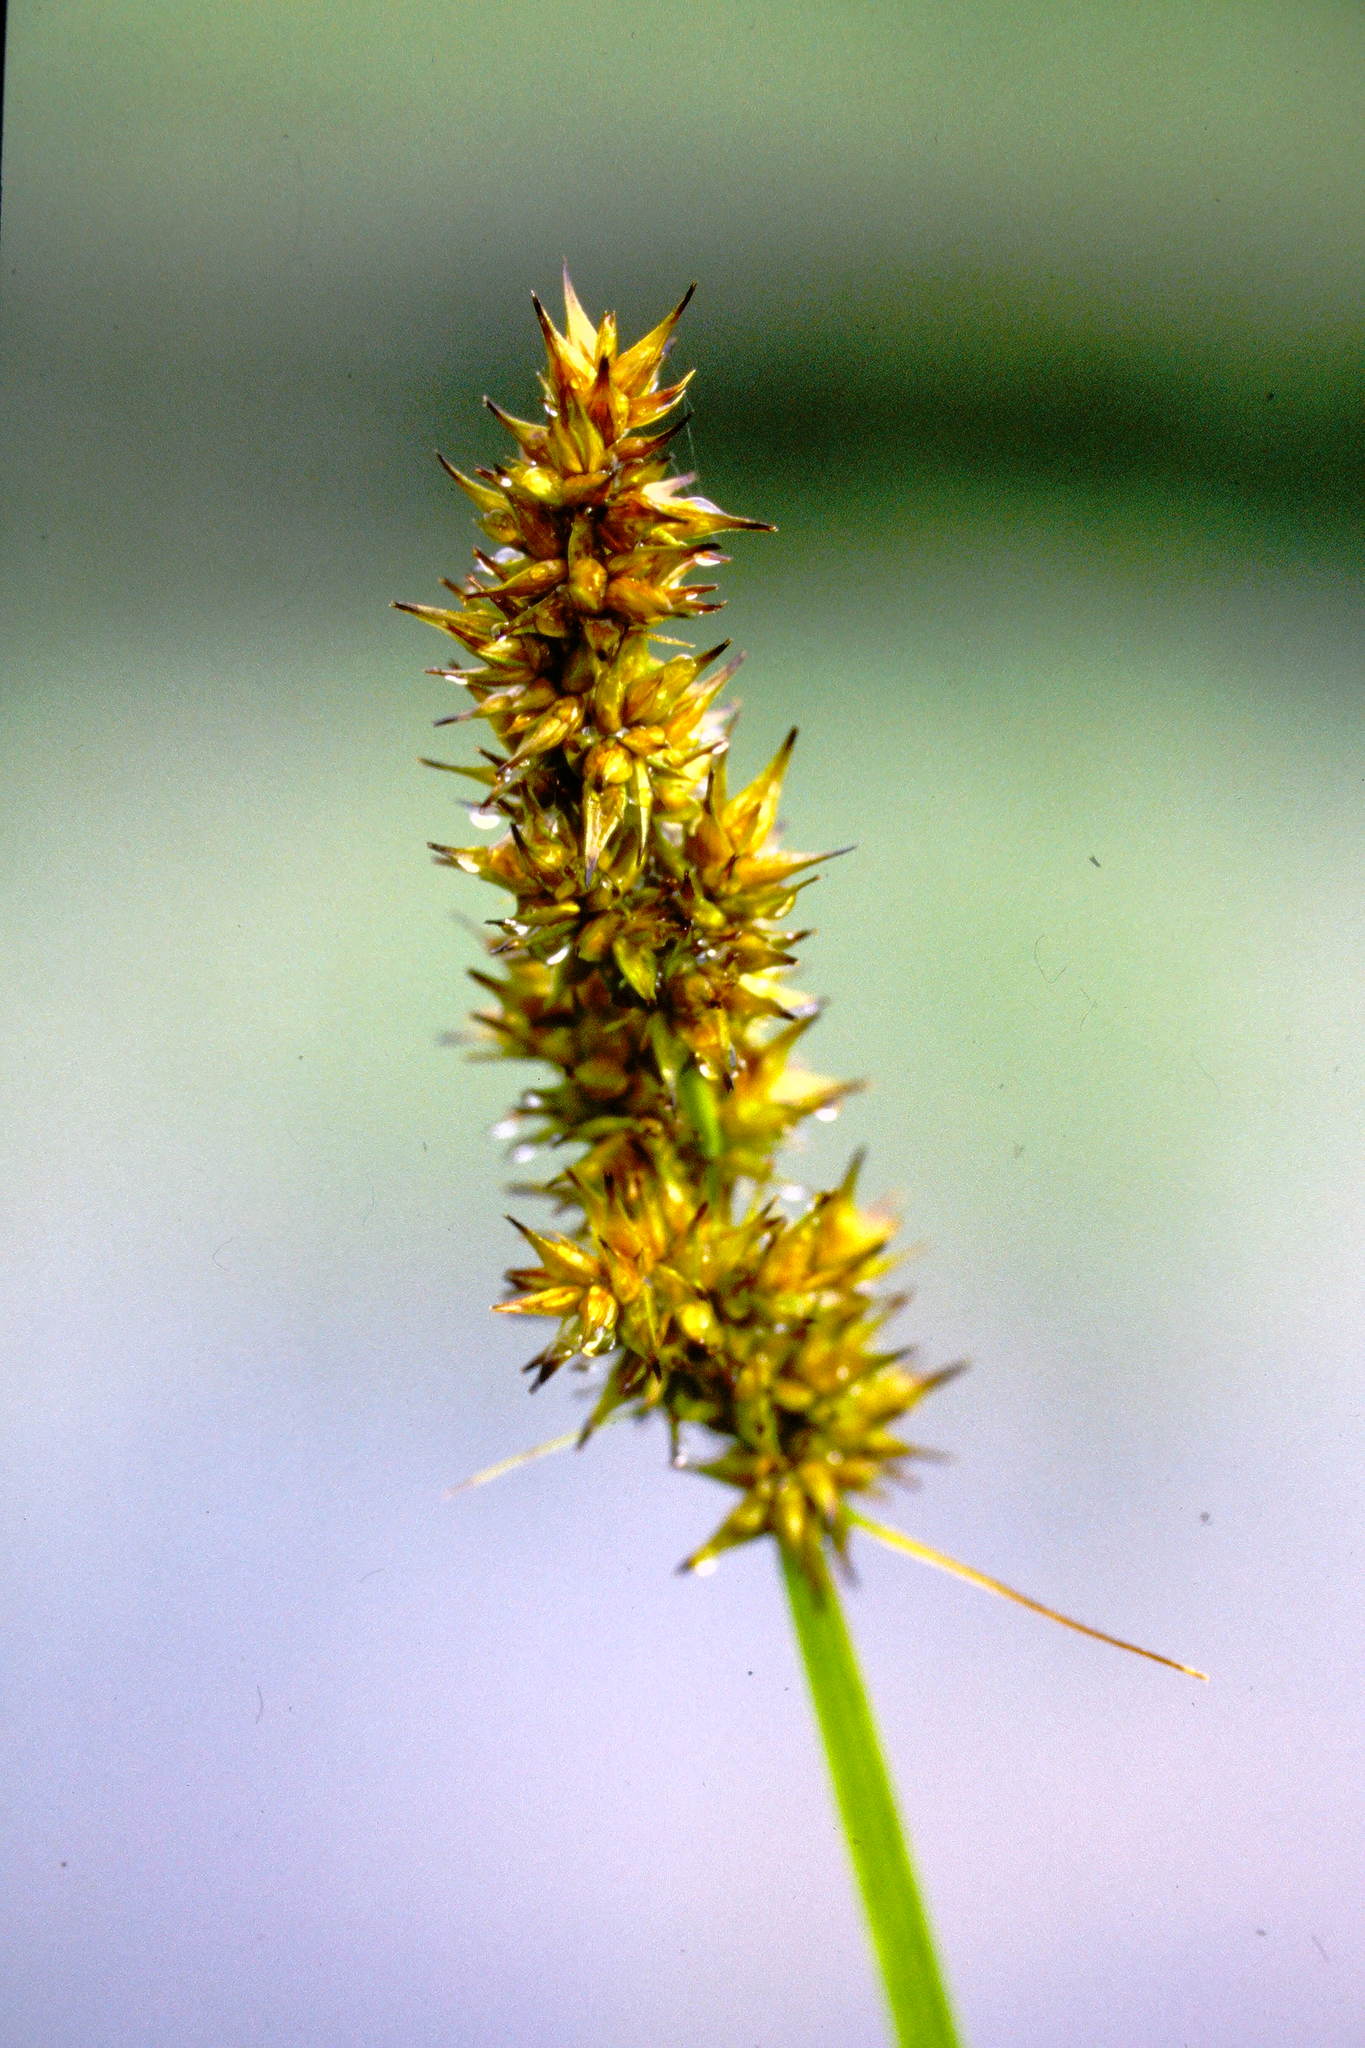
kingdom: Plantae
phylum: Tracheophyta
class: Liliopsida
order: Poales
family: Cyperaceae
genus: Carex
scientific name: Carex stipata
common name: Awl-fruited sedge
